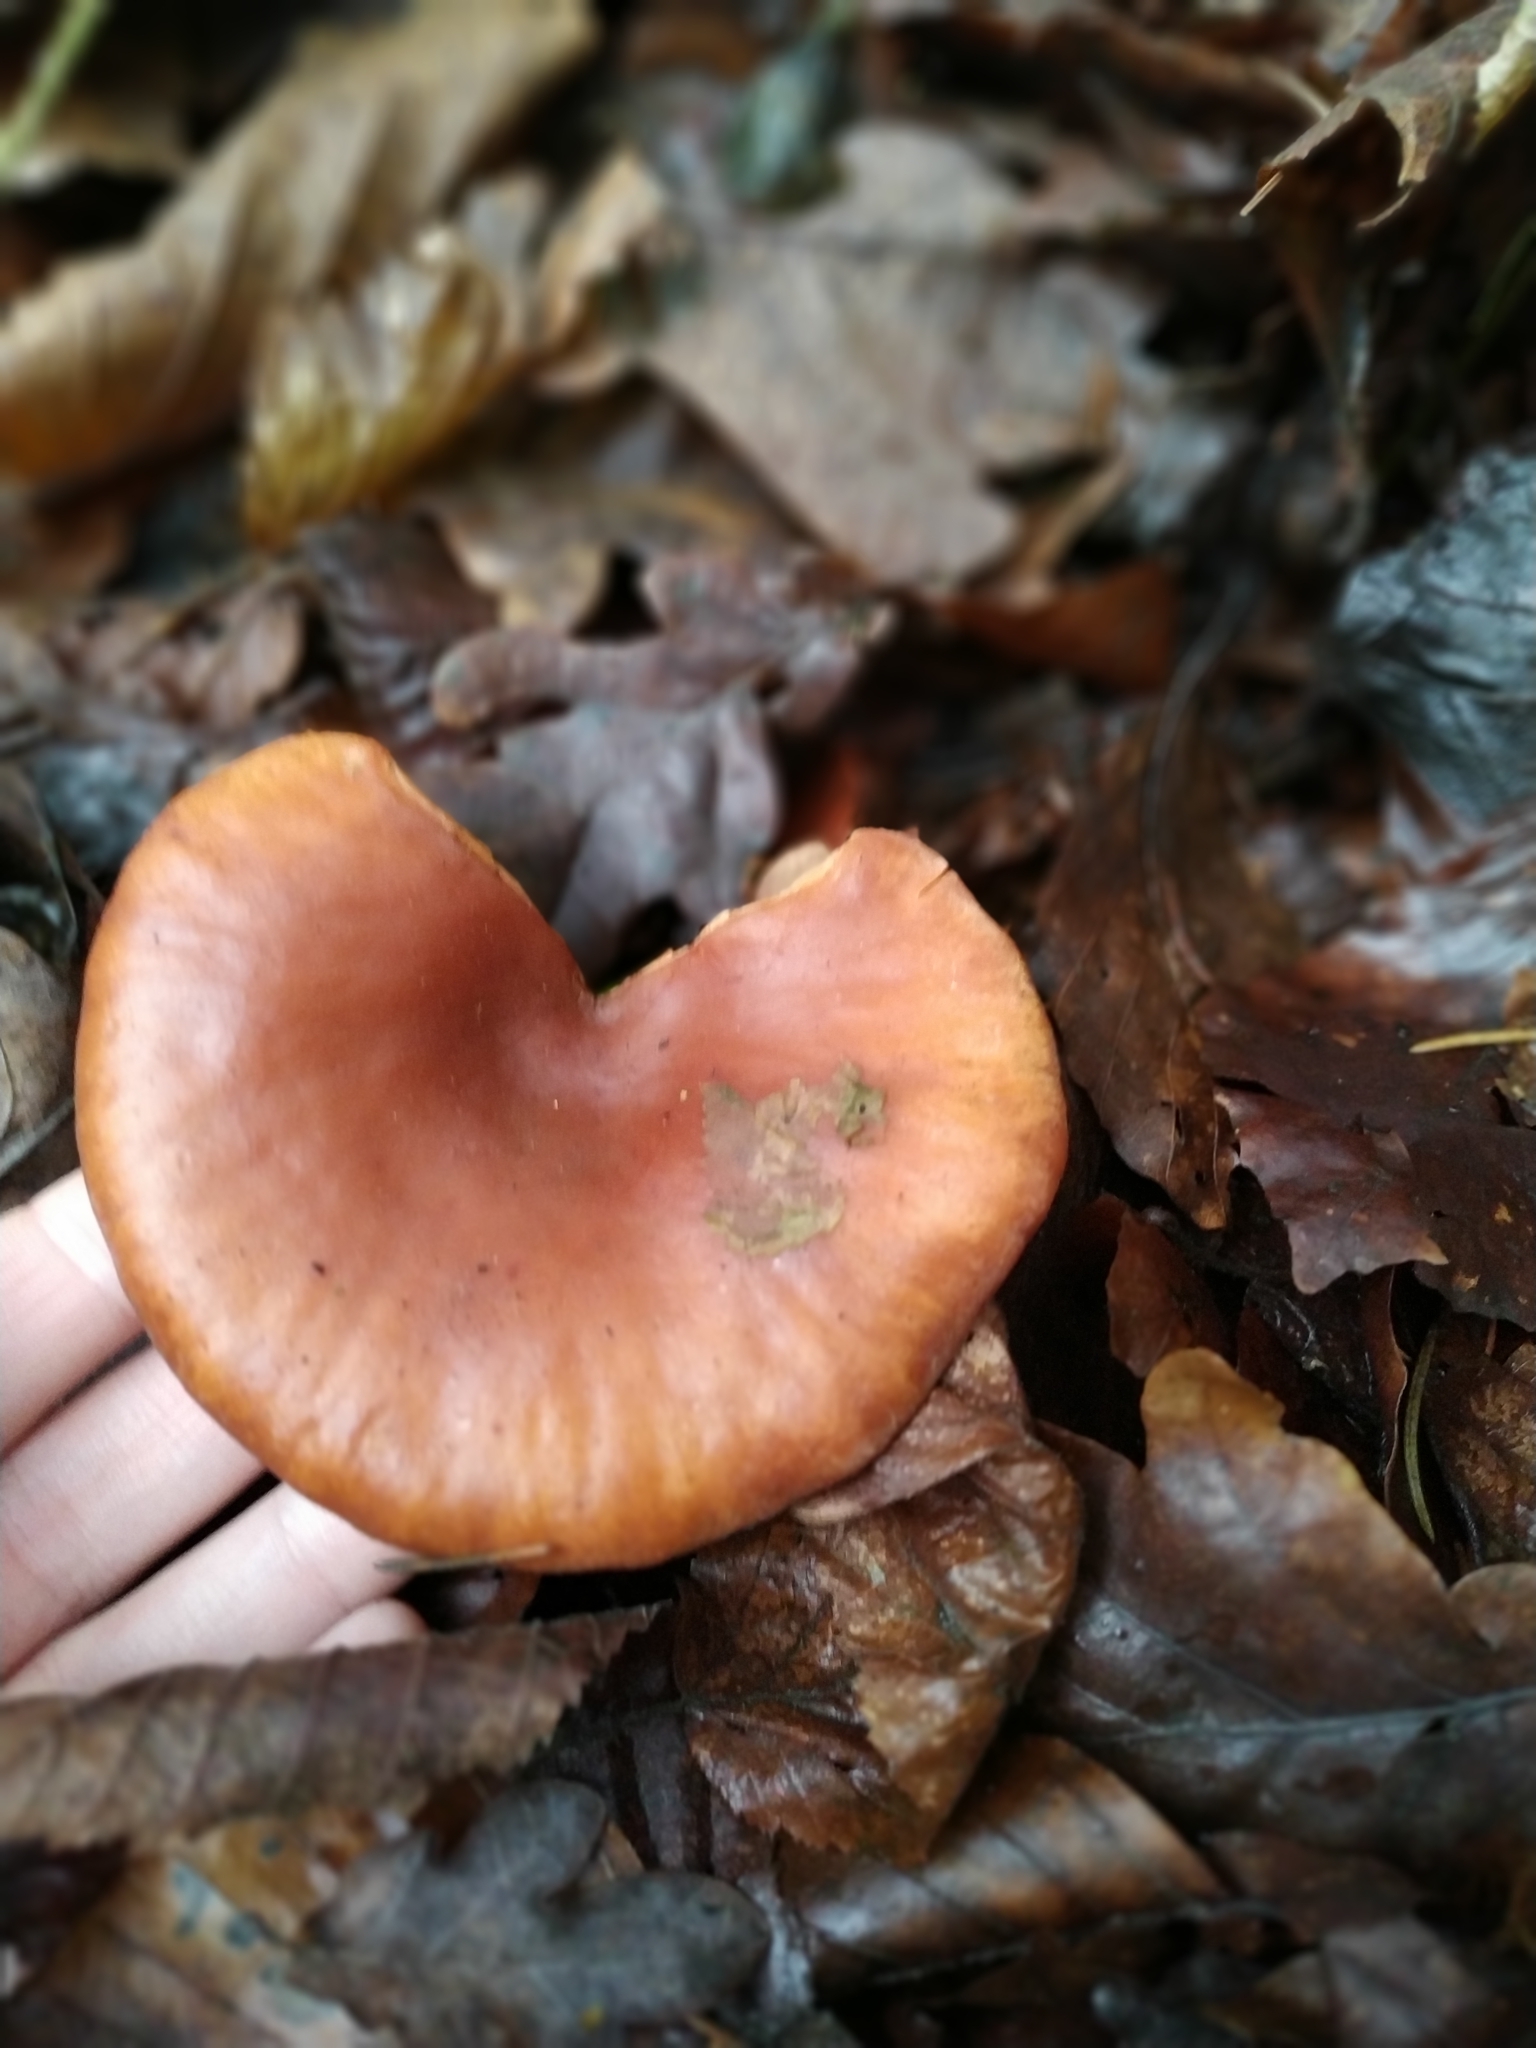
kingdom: Fungi
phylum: Basidiomycota
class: Agaricomycetes
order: Agaricales
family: Tricholomataceae
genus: Paralepista
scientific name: Paralepista flaccida
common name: Tawny funnel cap
